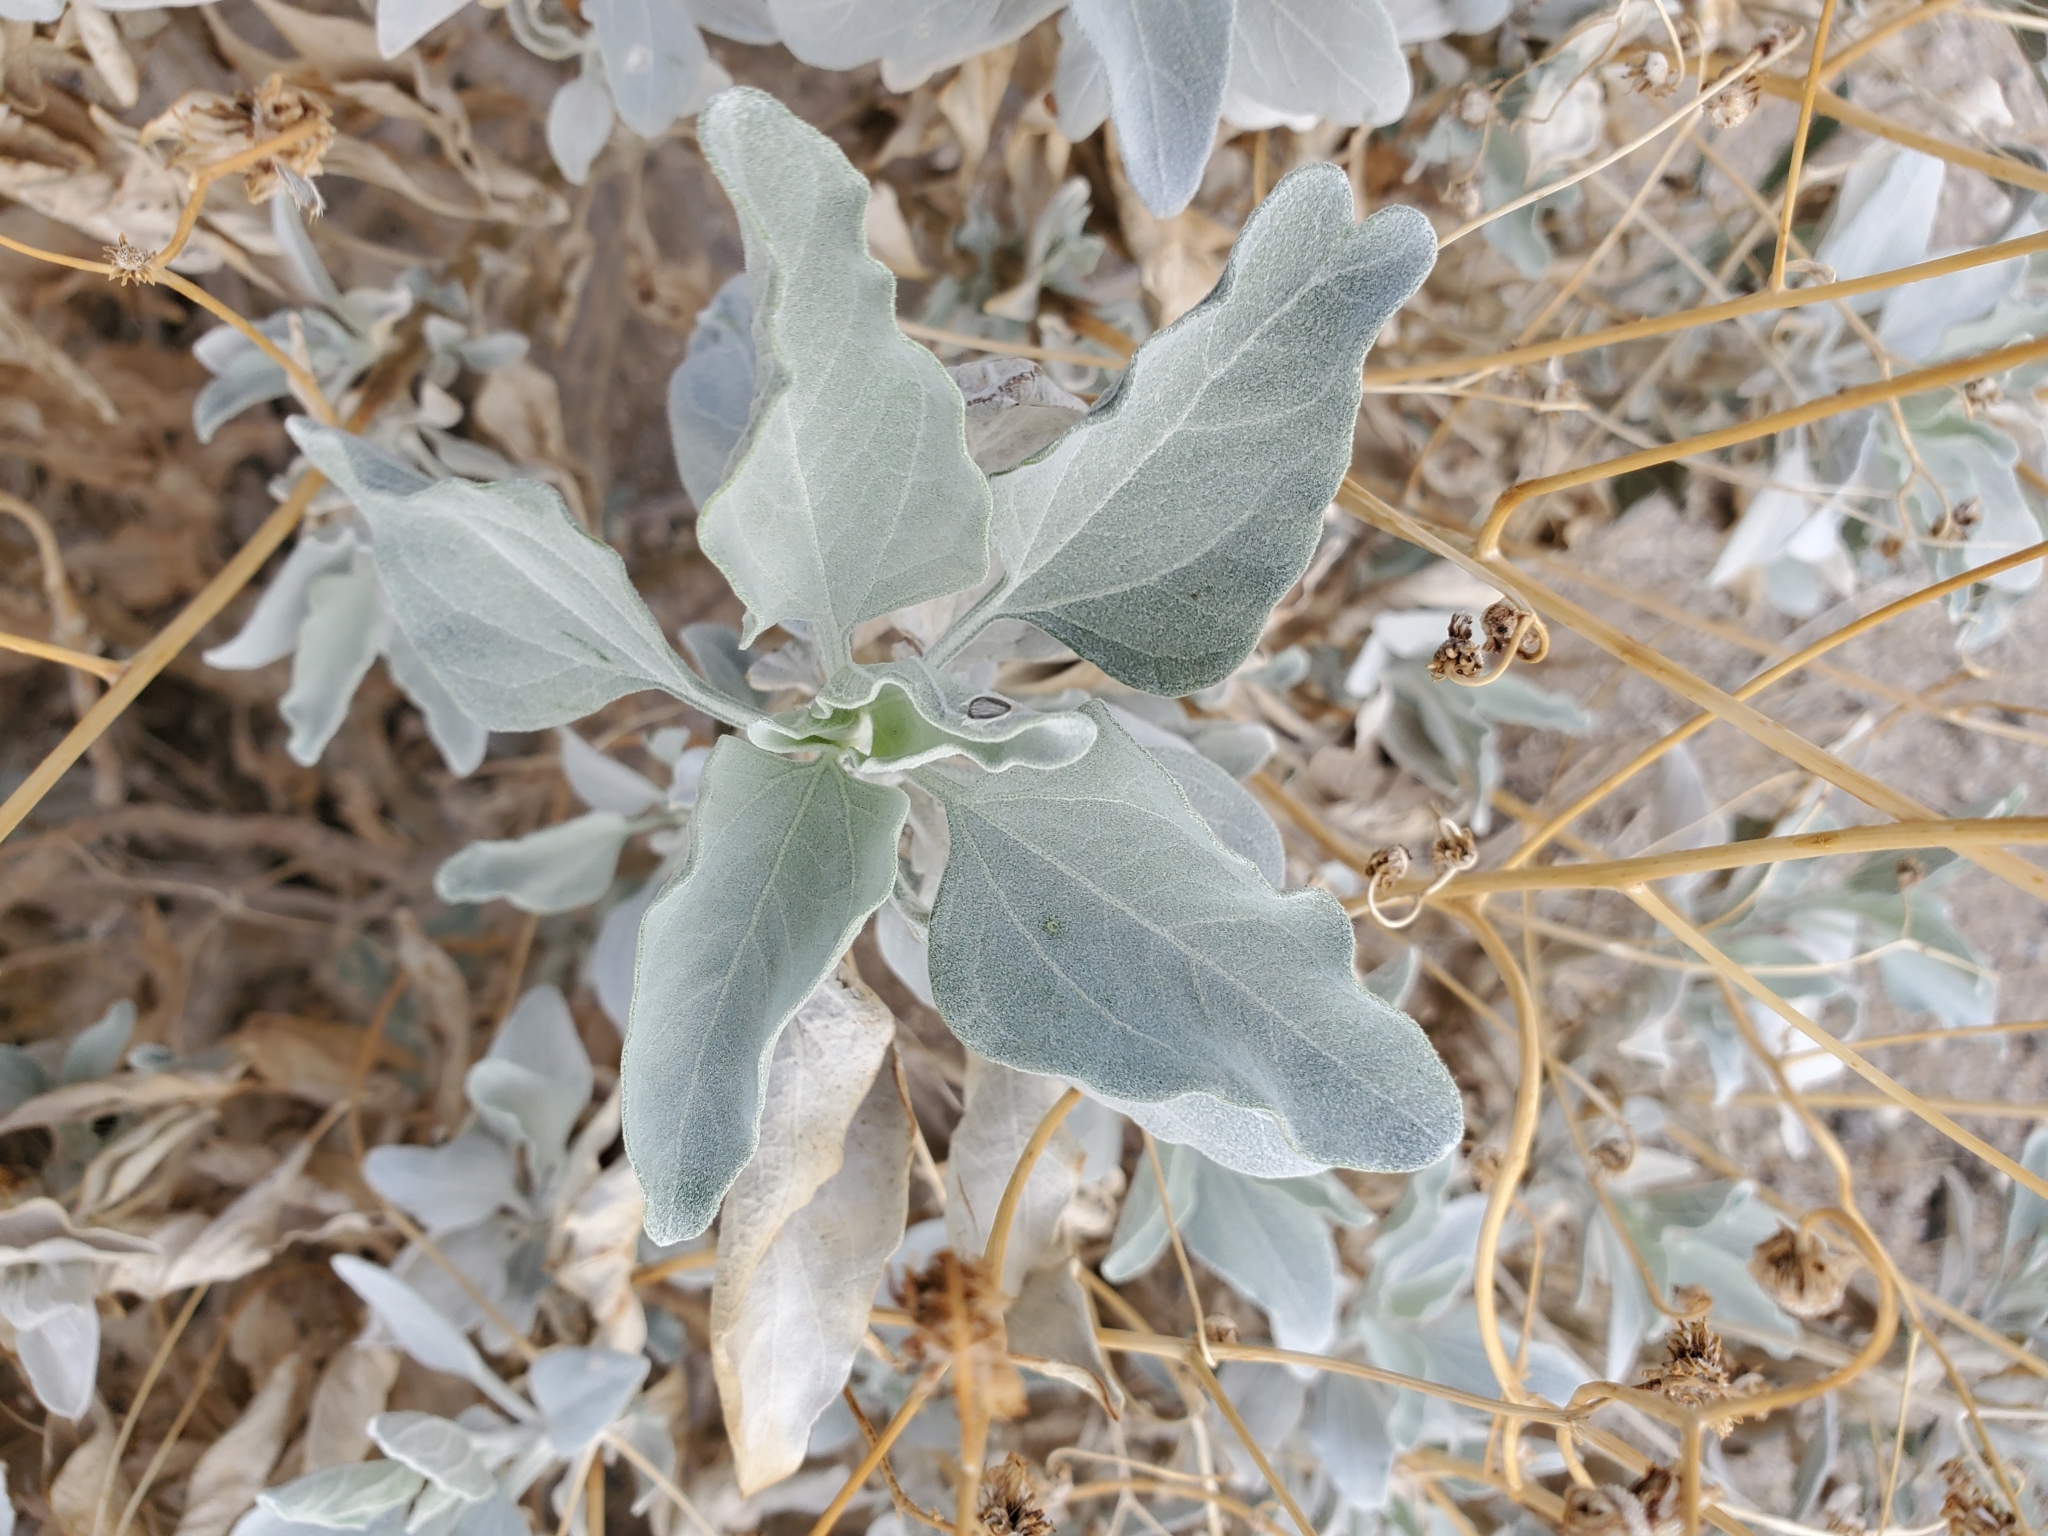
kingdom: Plantae
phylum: Tracheophyta
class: Magnoliopsida
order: Asterales
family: Asteraceae
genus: Encelia
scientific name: Encelia farinosa
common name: Brittlebush
